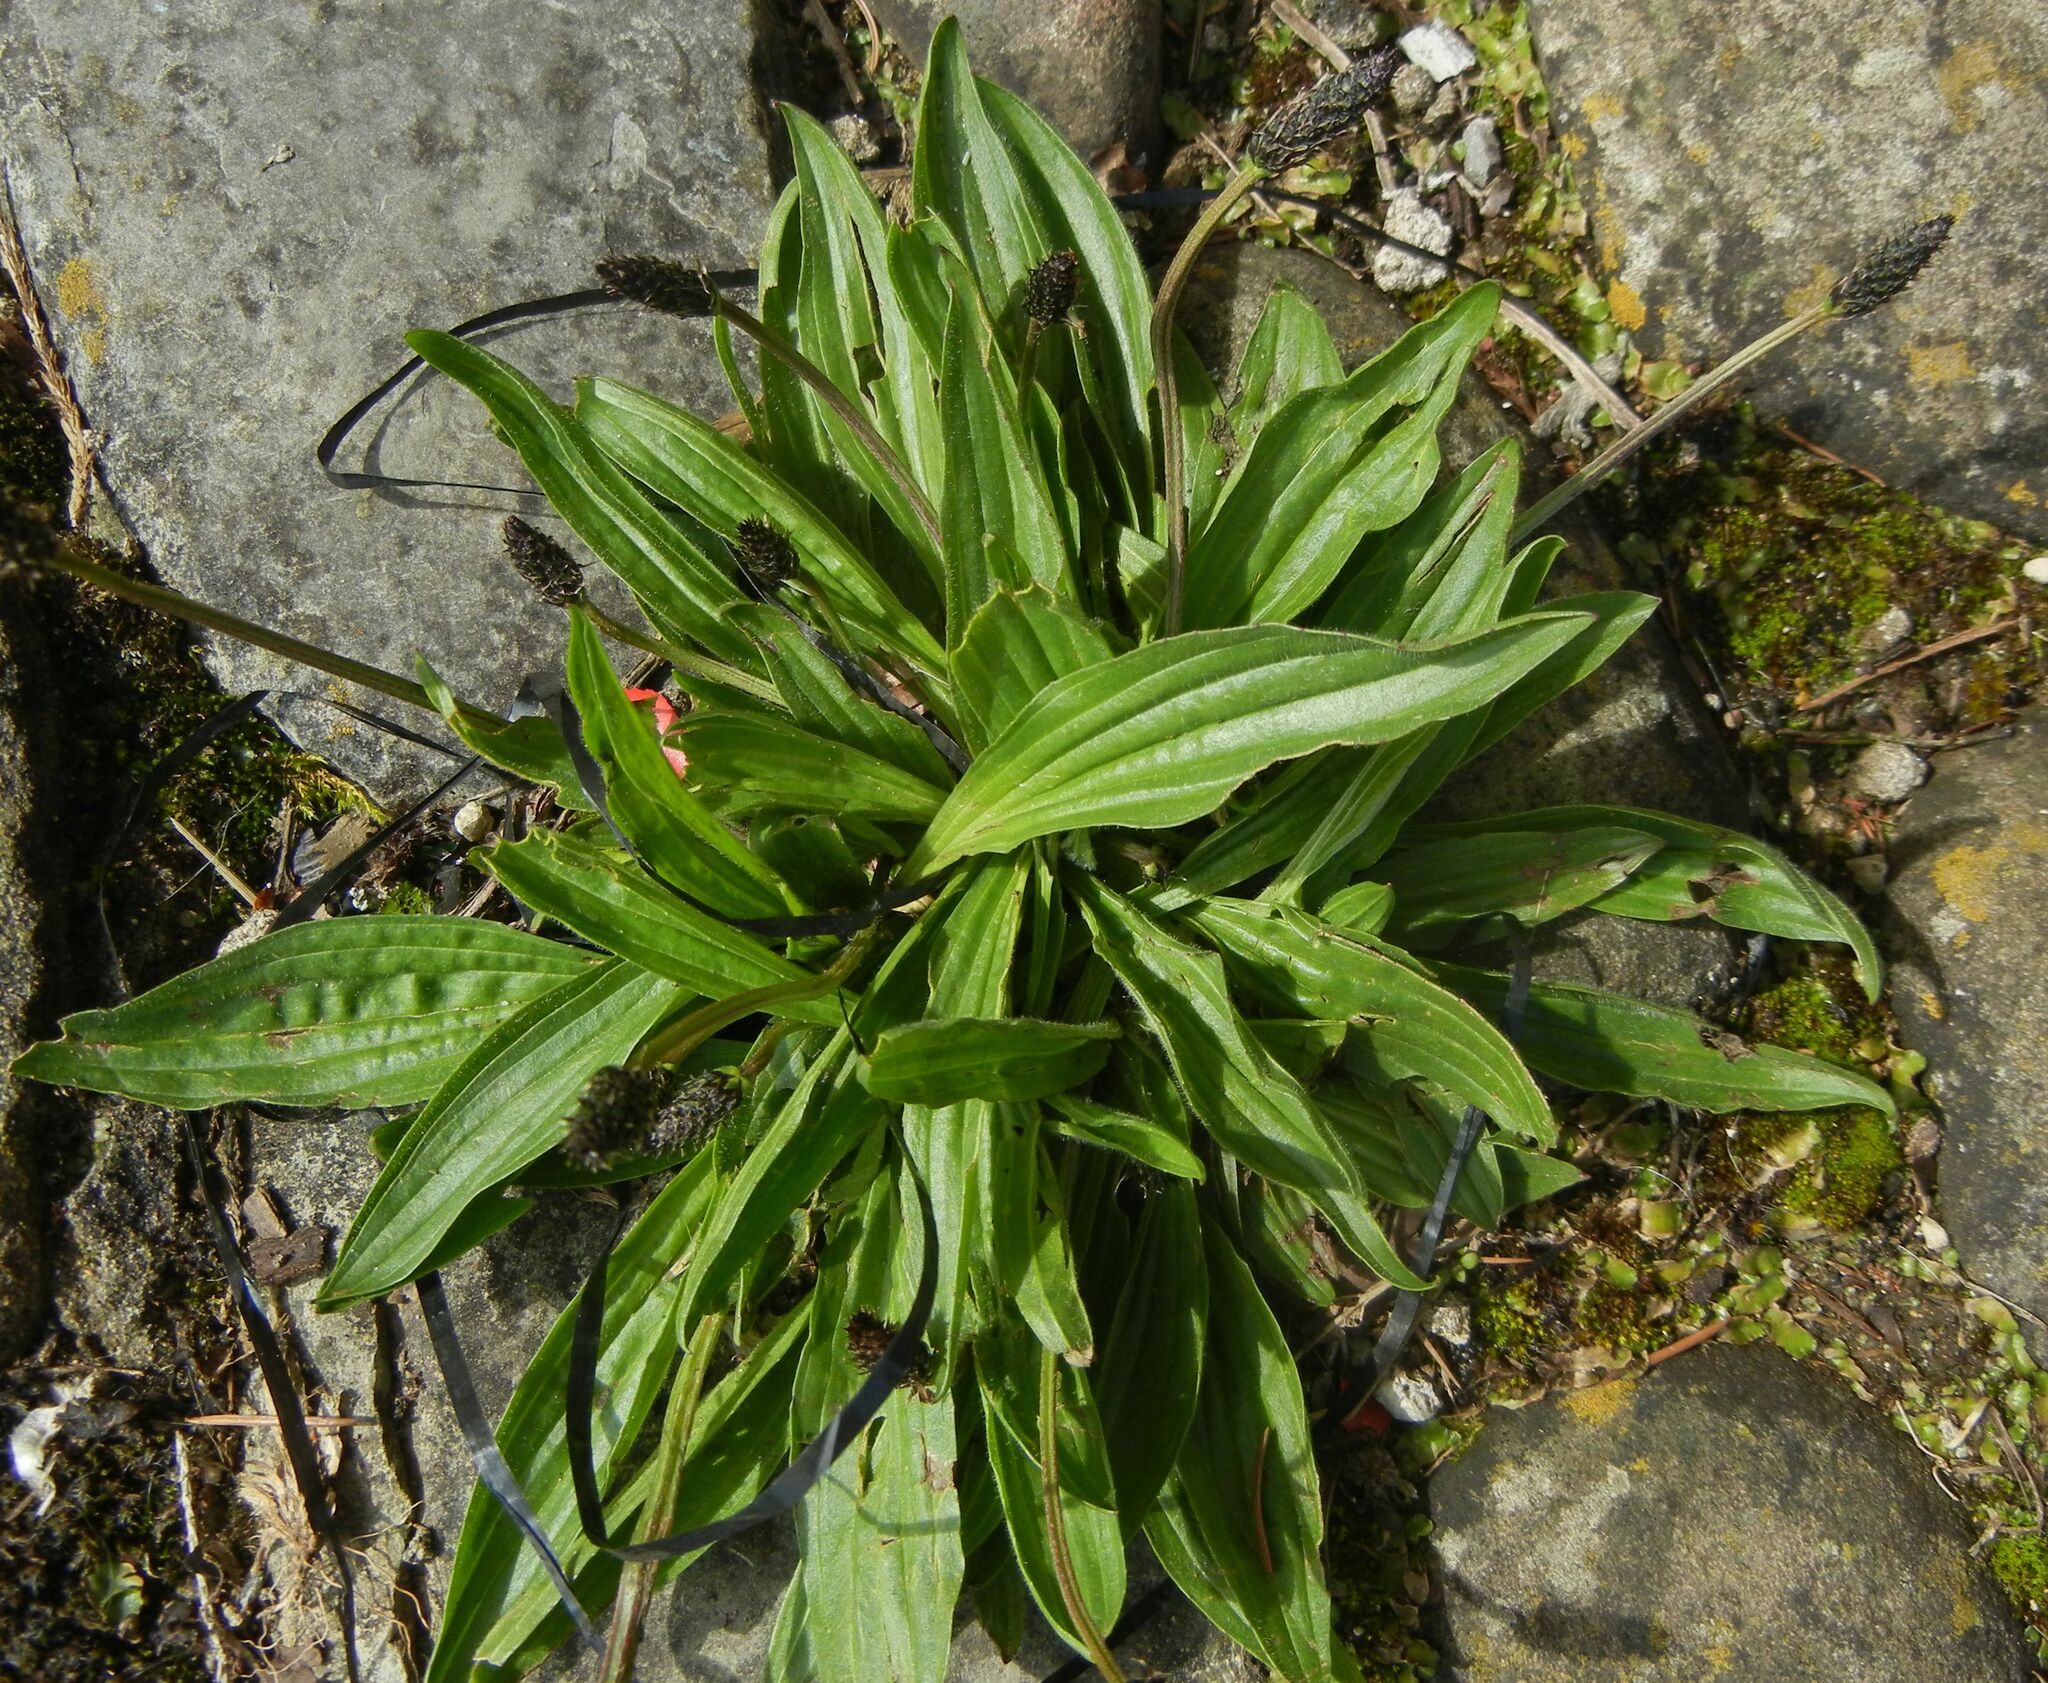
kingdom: Plantae
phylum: Tracheophyta
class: Magnoliopsida
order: Lamiales
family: Plantaginaceae
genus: Plantago
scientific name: Plantago lanceolata
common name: Ribwort plantain
